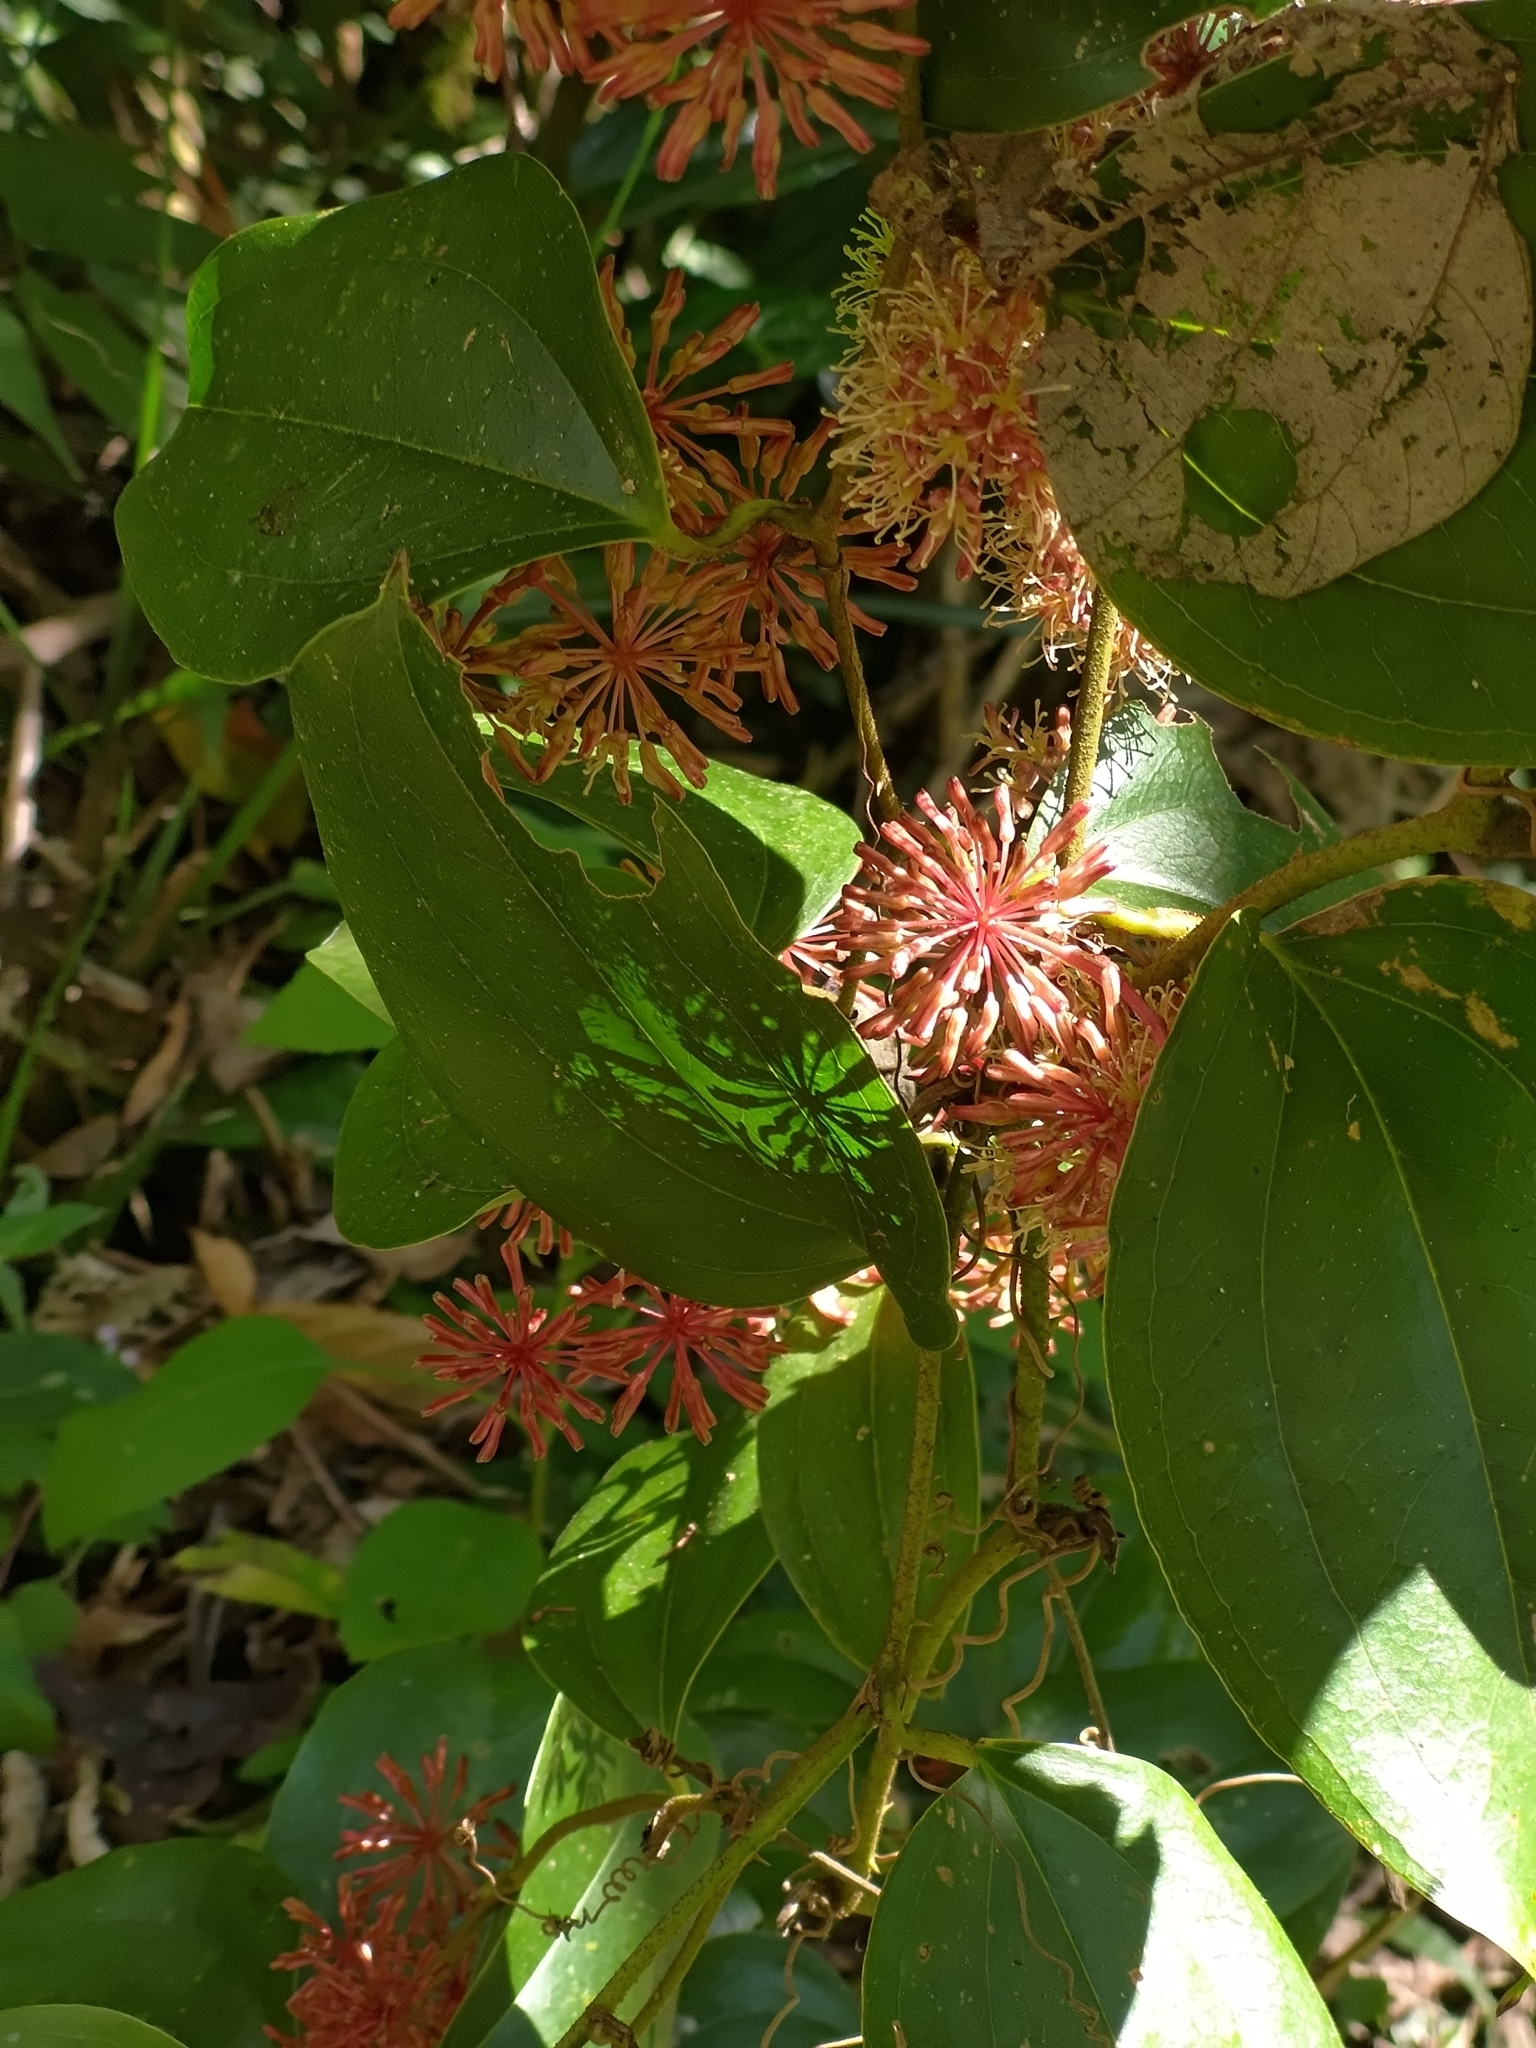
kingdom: Plantae
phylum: Tracheophyta
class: Liliopsida
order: Liliales
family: Smilacaceae
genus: Smilax
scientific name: Smilax aspericaulis
